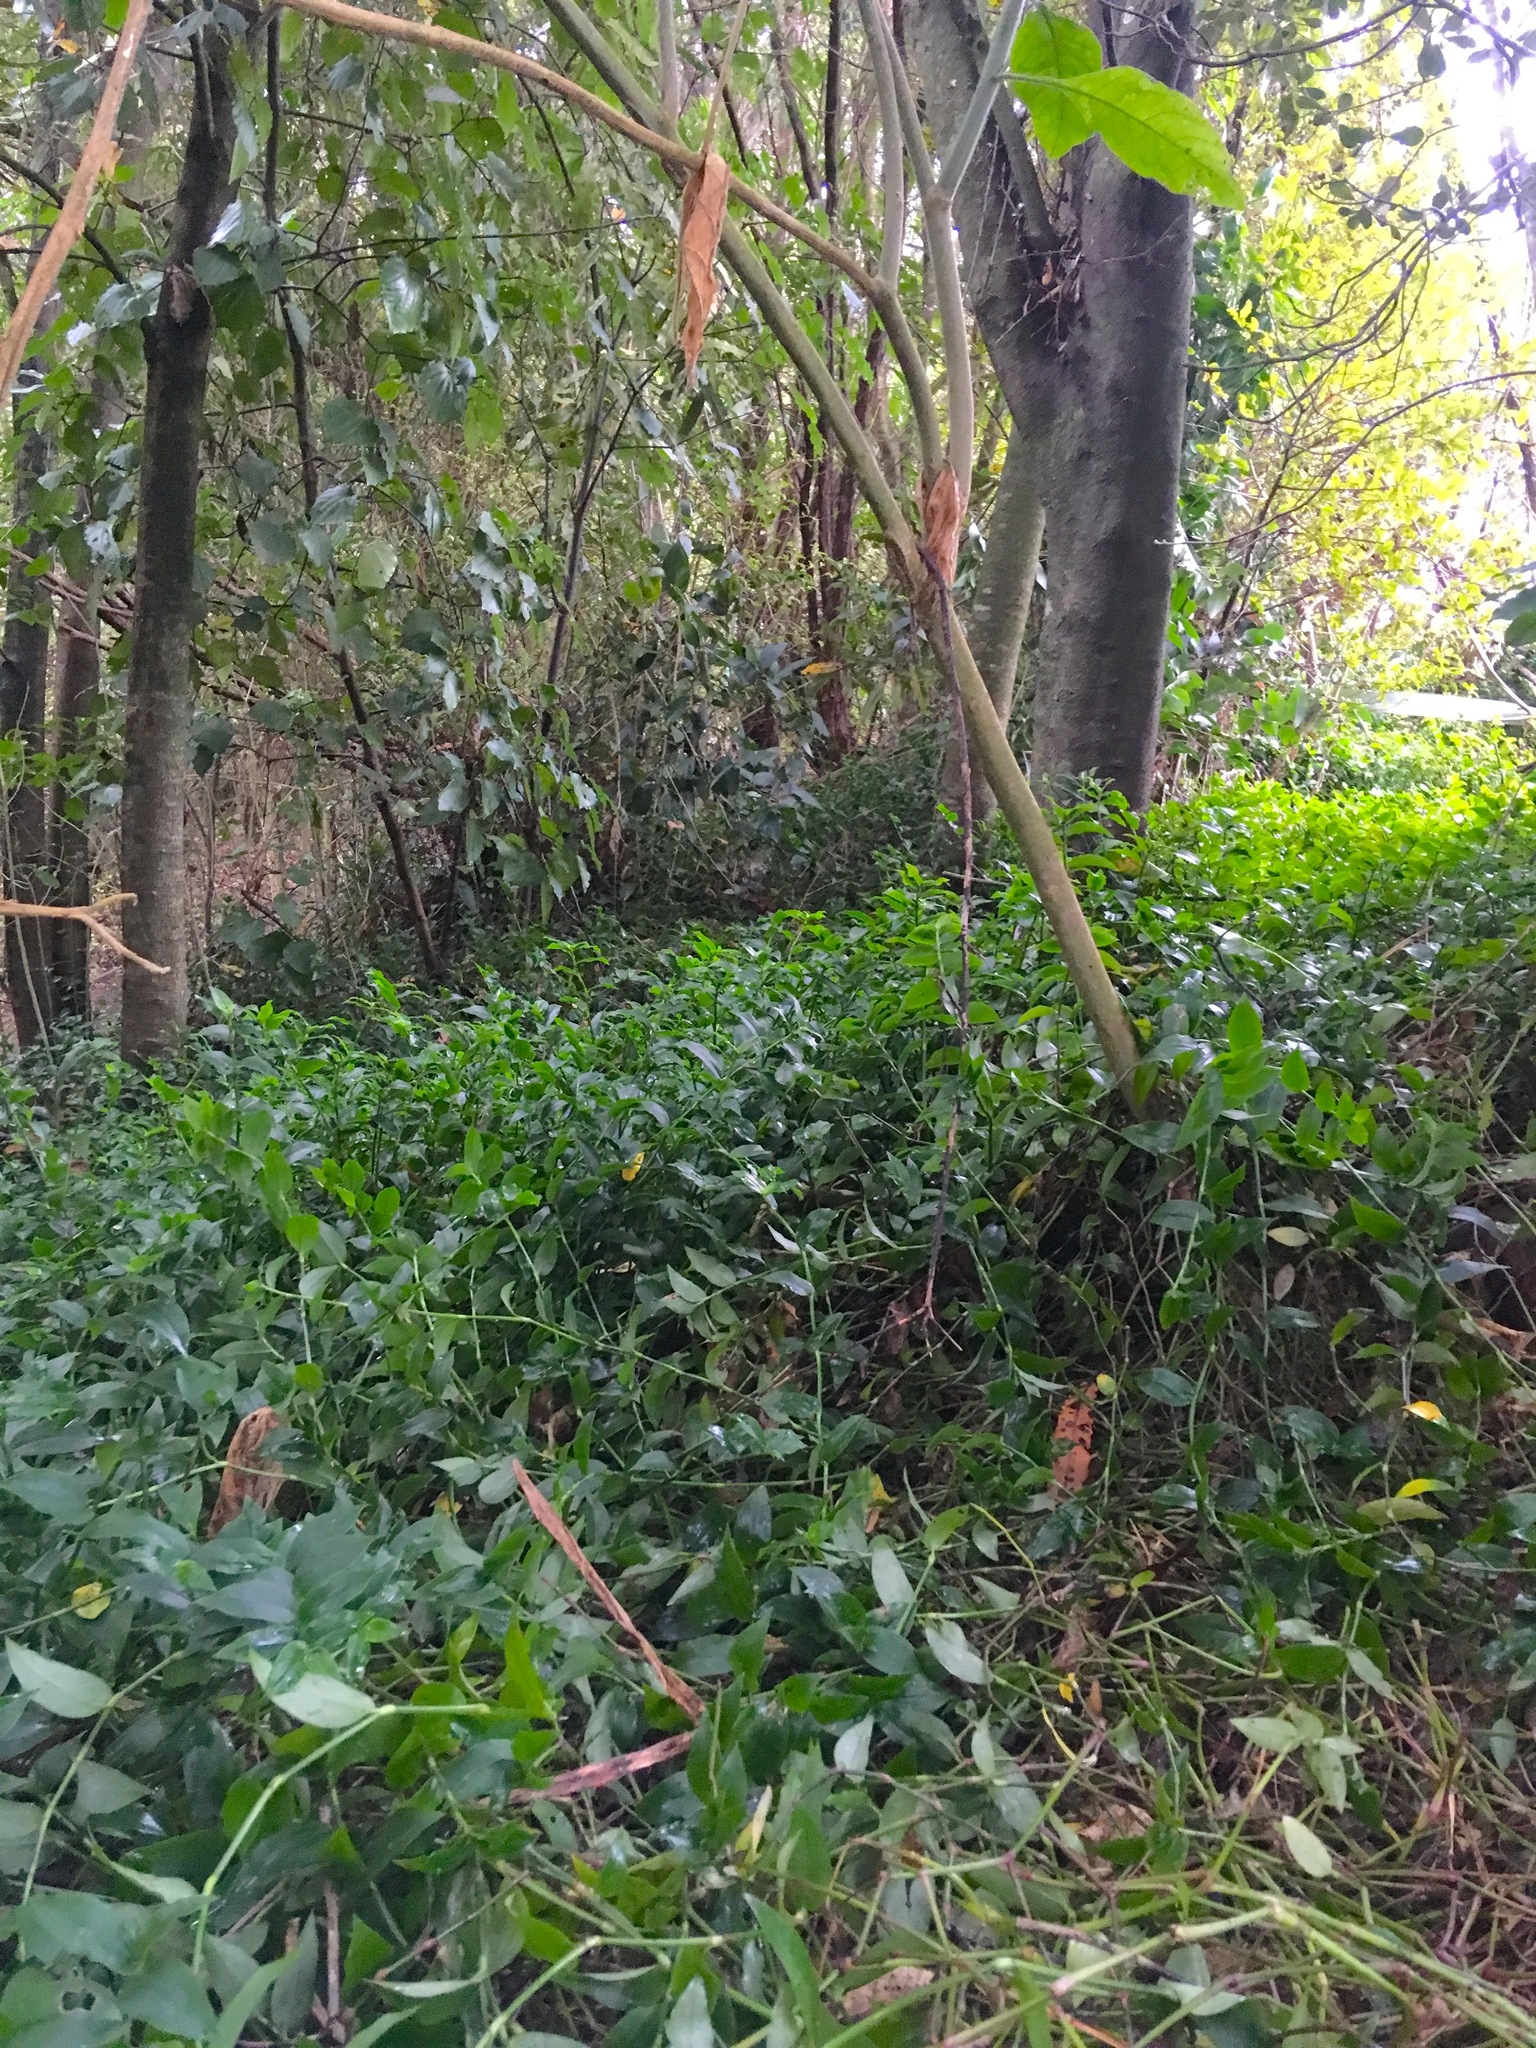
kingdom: Plantae
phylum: Tracheophyta
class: Magnoliopsida
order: Solanales
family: Solanaceae
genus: Solanum
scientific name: Solanum mauritianum
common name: Earleaf nightshade
